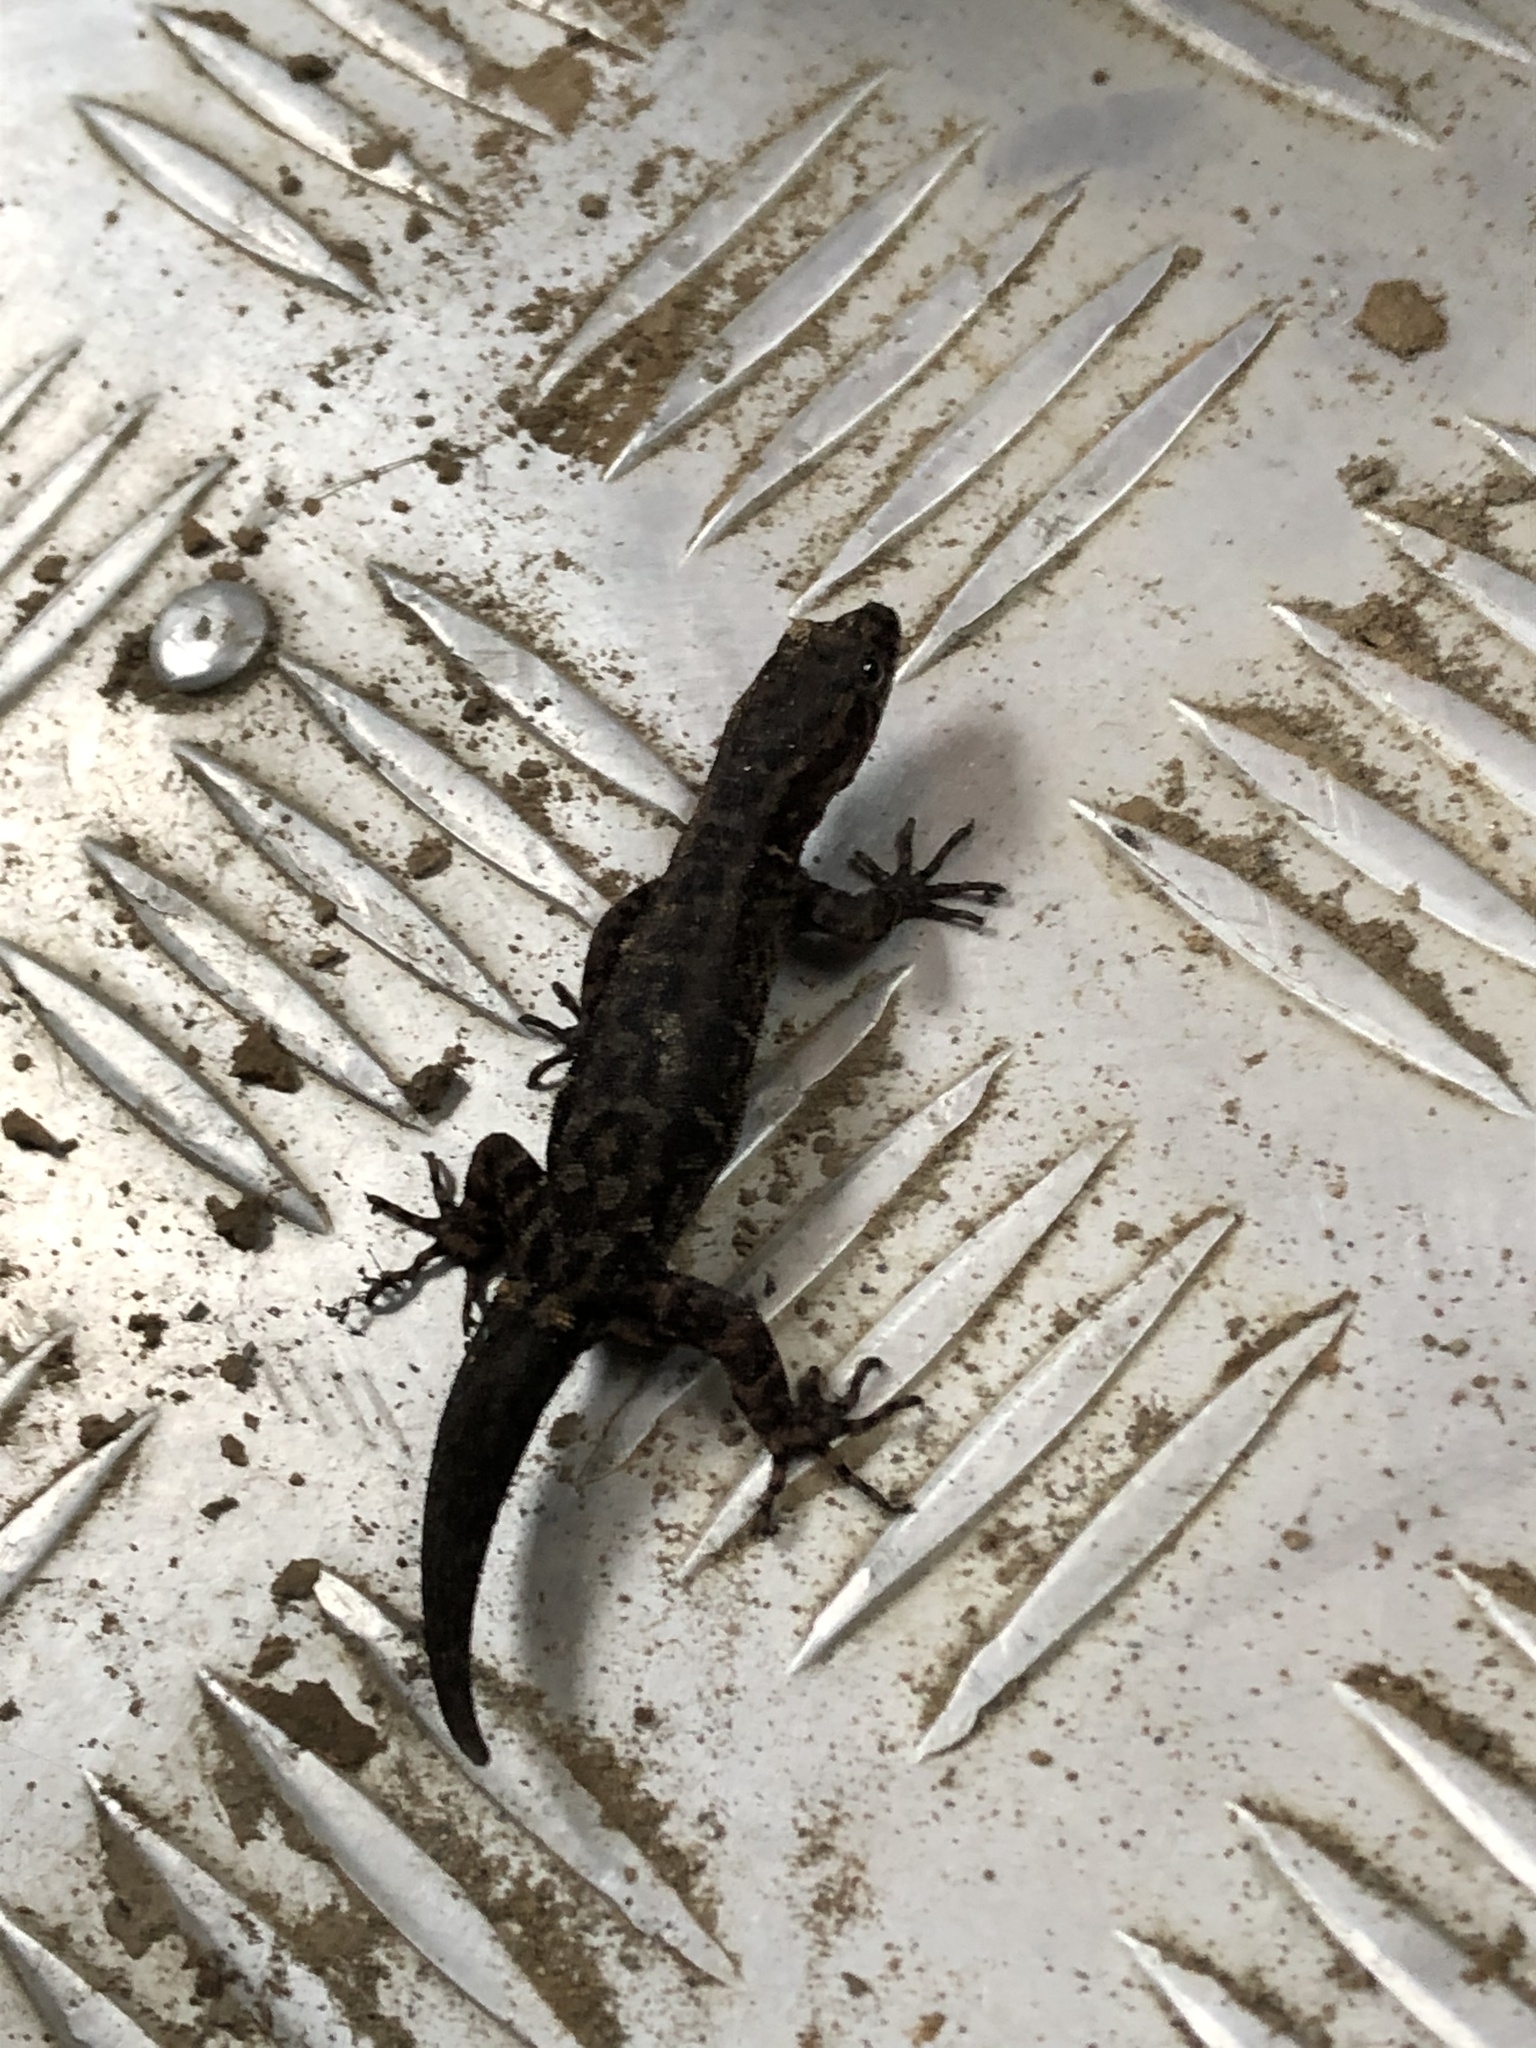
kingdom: Animalia
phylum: Chordata
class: Squamata
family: Sphaerodactylidae
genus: Gonatodes
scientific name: Gonatodes hasemani
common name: Haseman's gecko
